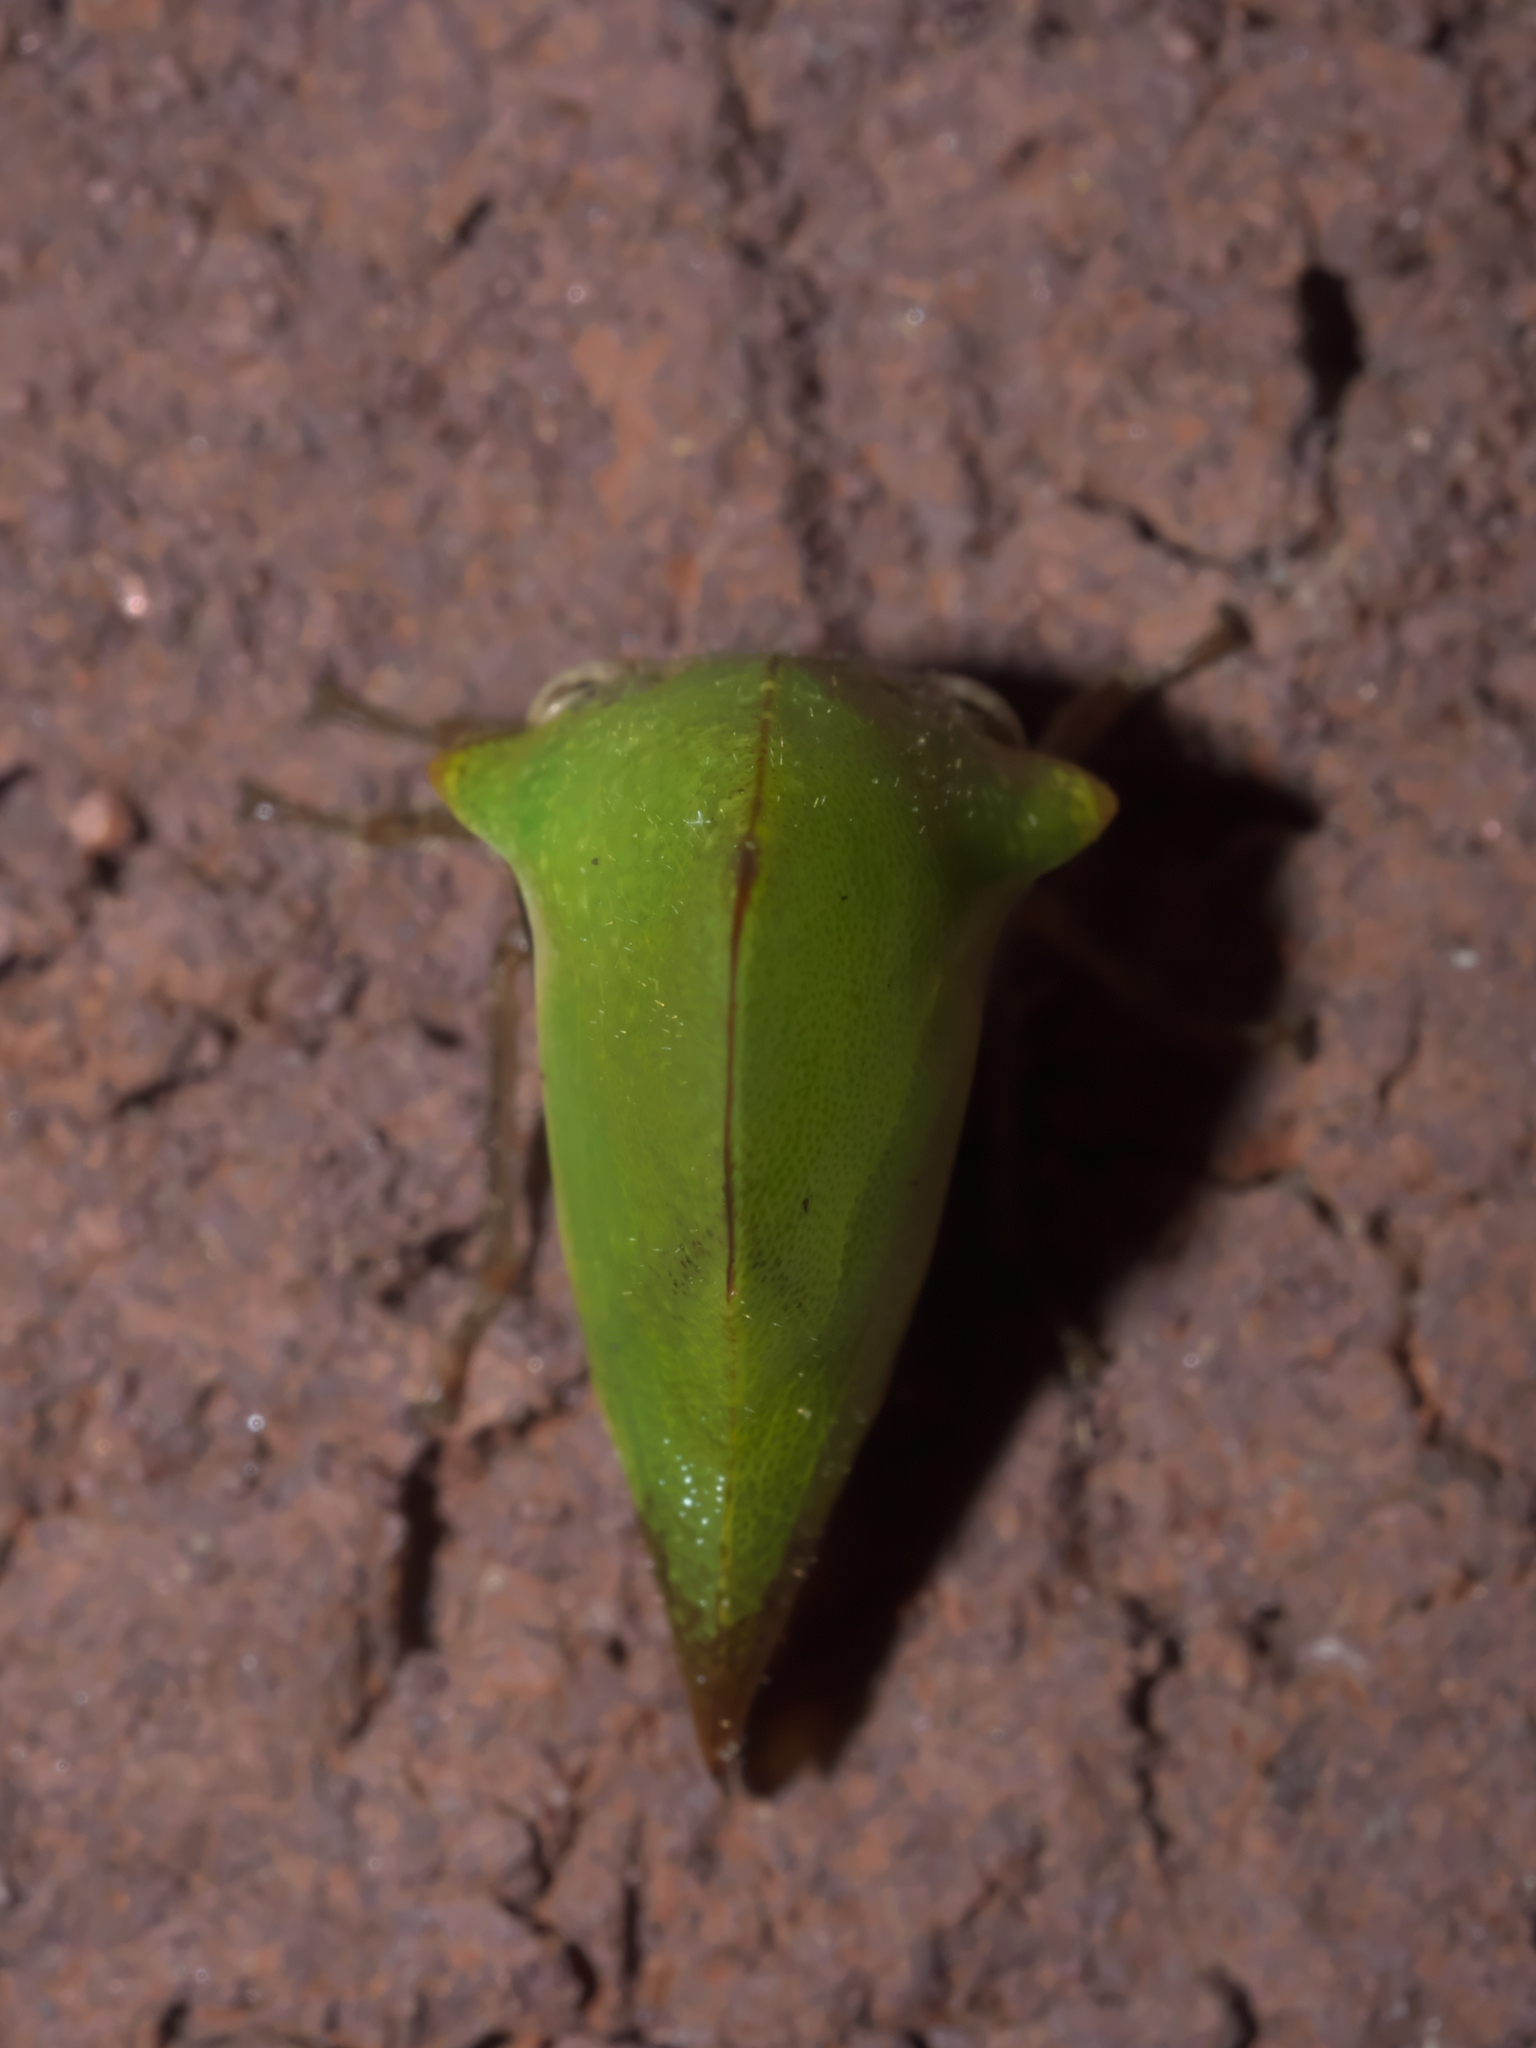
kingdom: Animalia
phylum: Arthropoda
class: Insecta
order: Hemiptera
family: Membracidae
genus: Helonica
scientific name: Helonica excelsa
